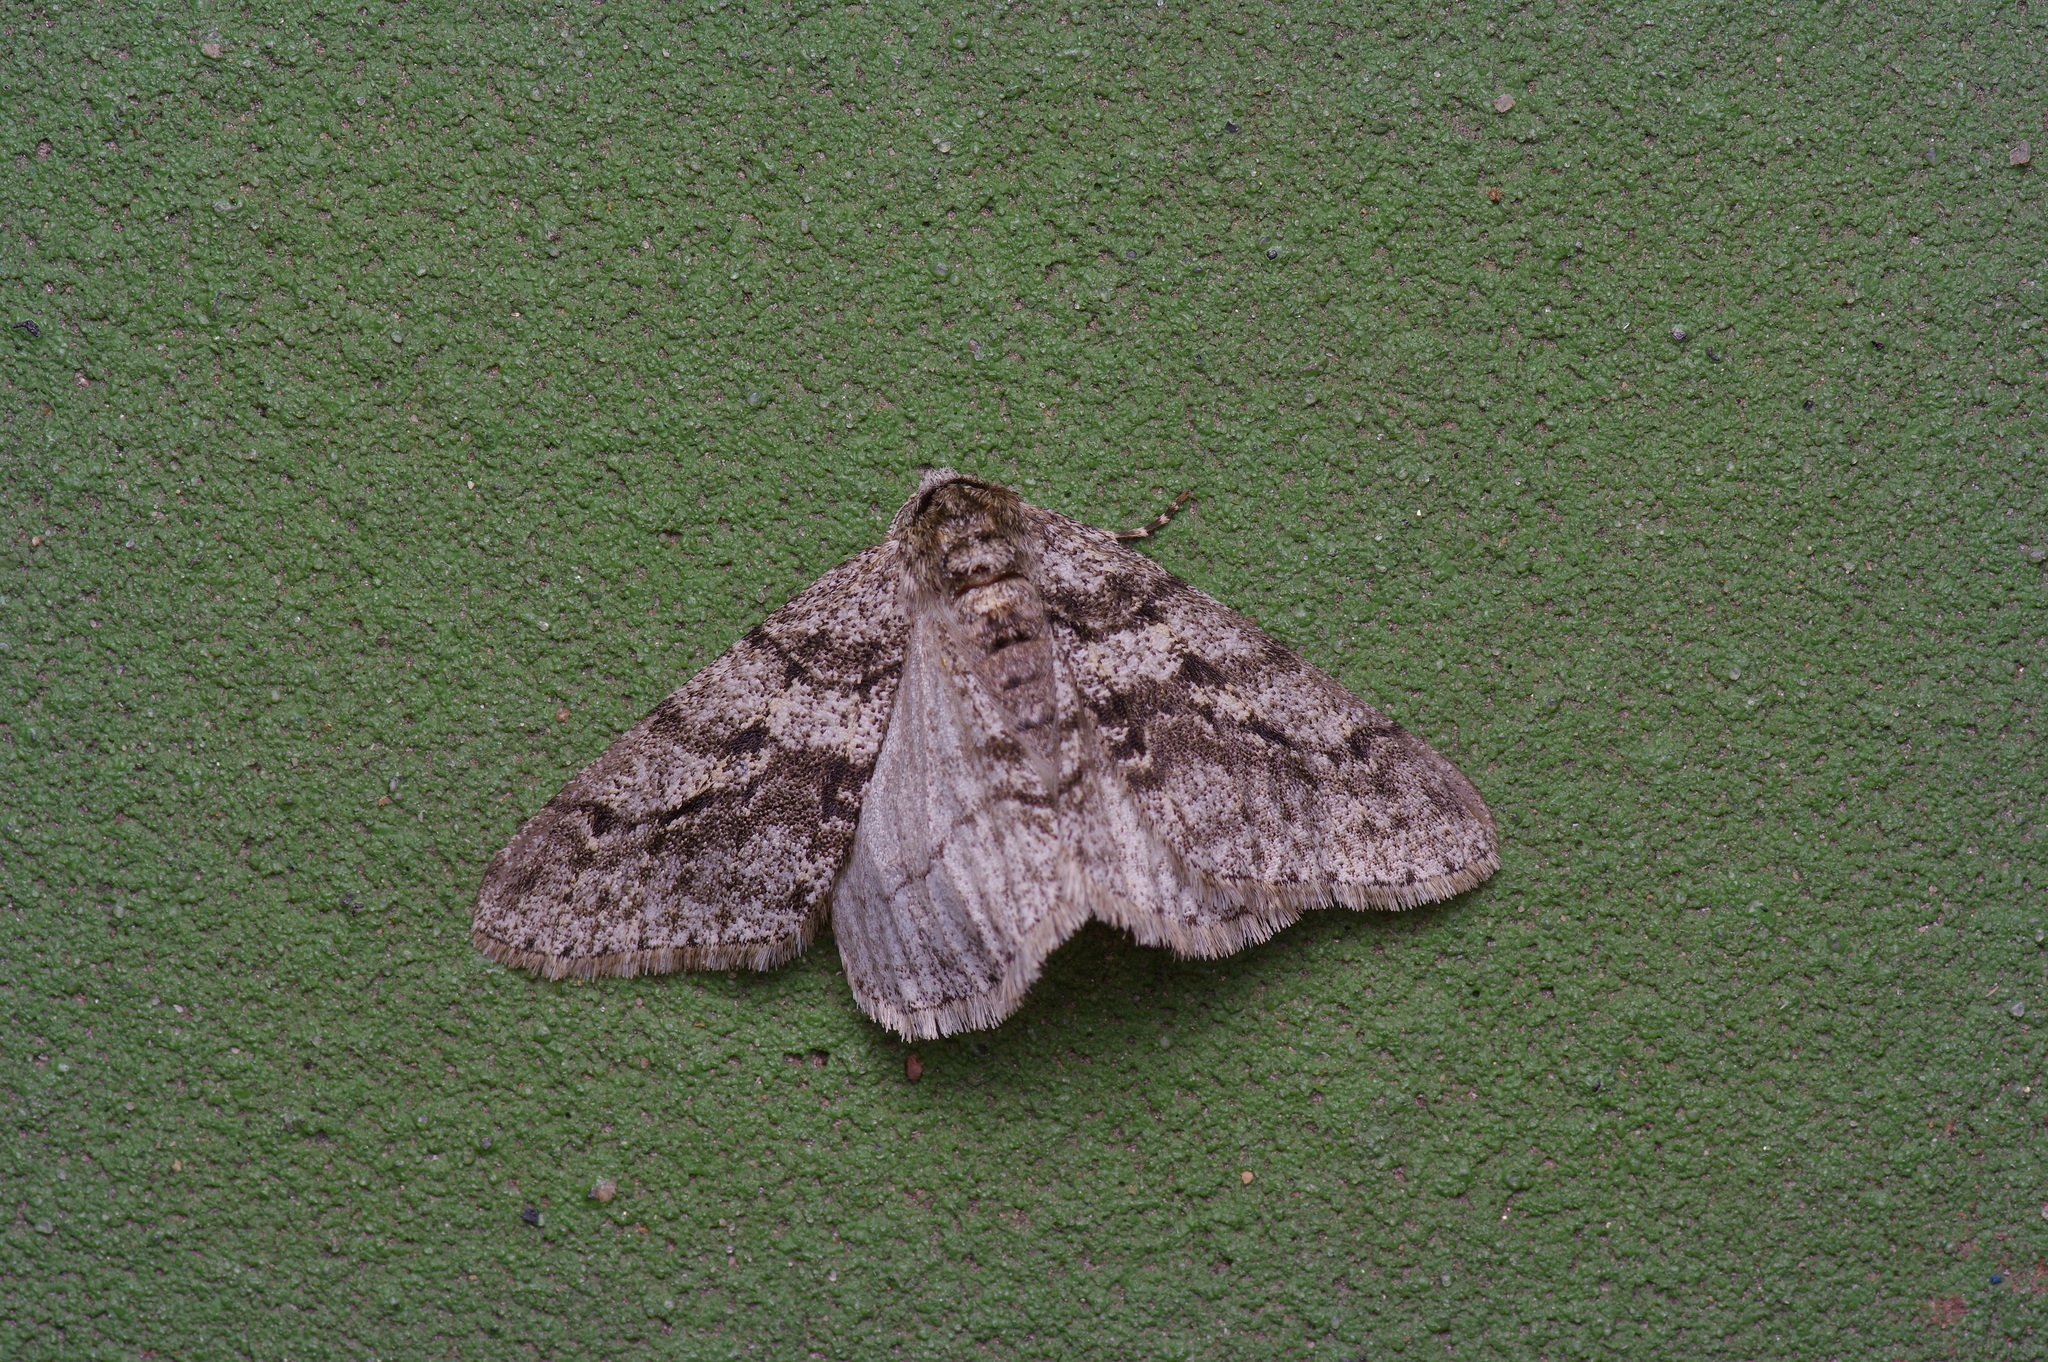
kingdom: Animalia
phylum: Arthropoda
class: Insecta
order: Lepidoptera
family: Geometridae
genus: Phigalia
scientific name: Phigalia titea
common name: Spiny looper
